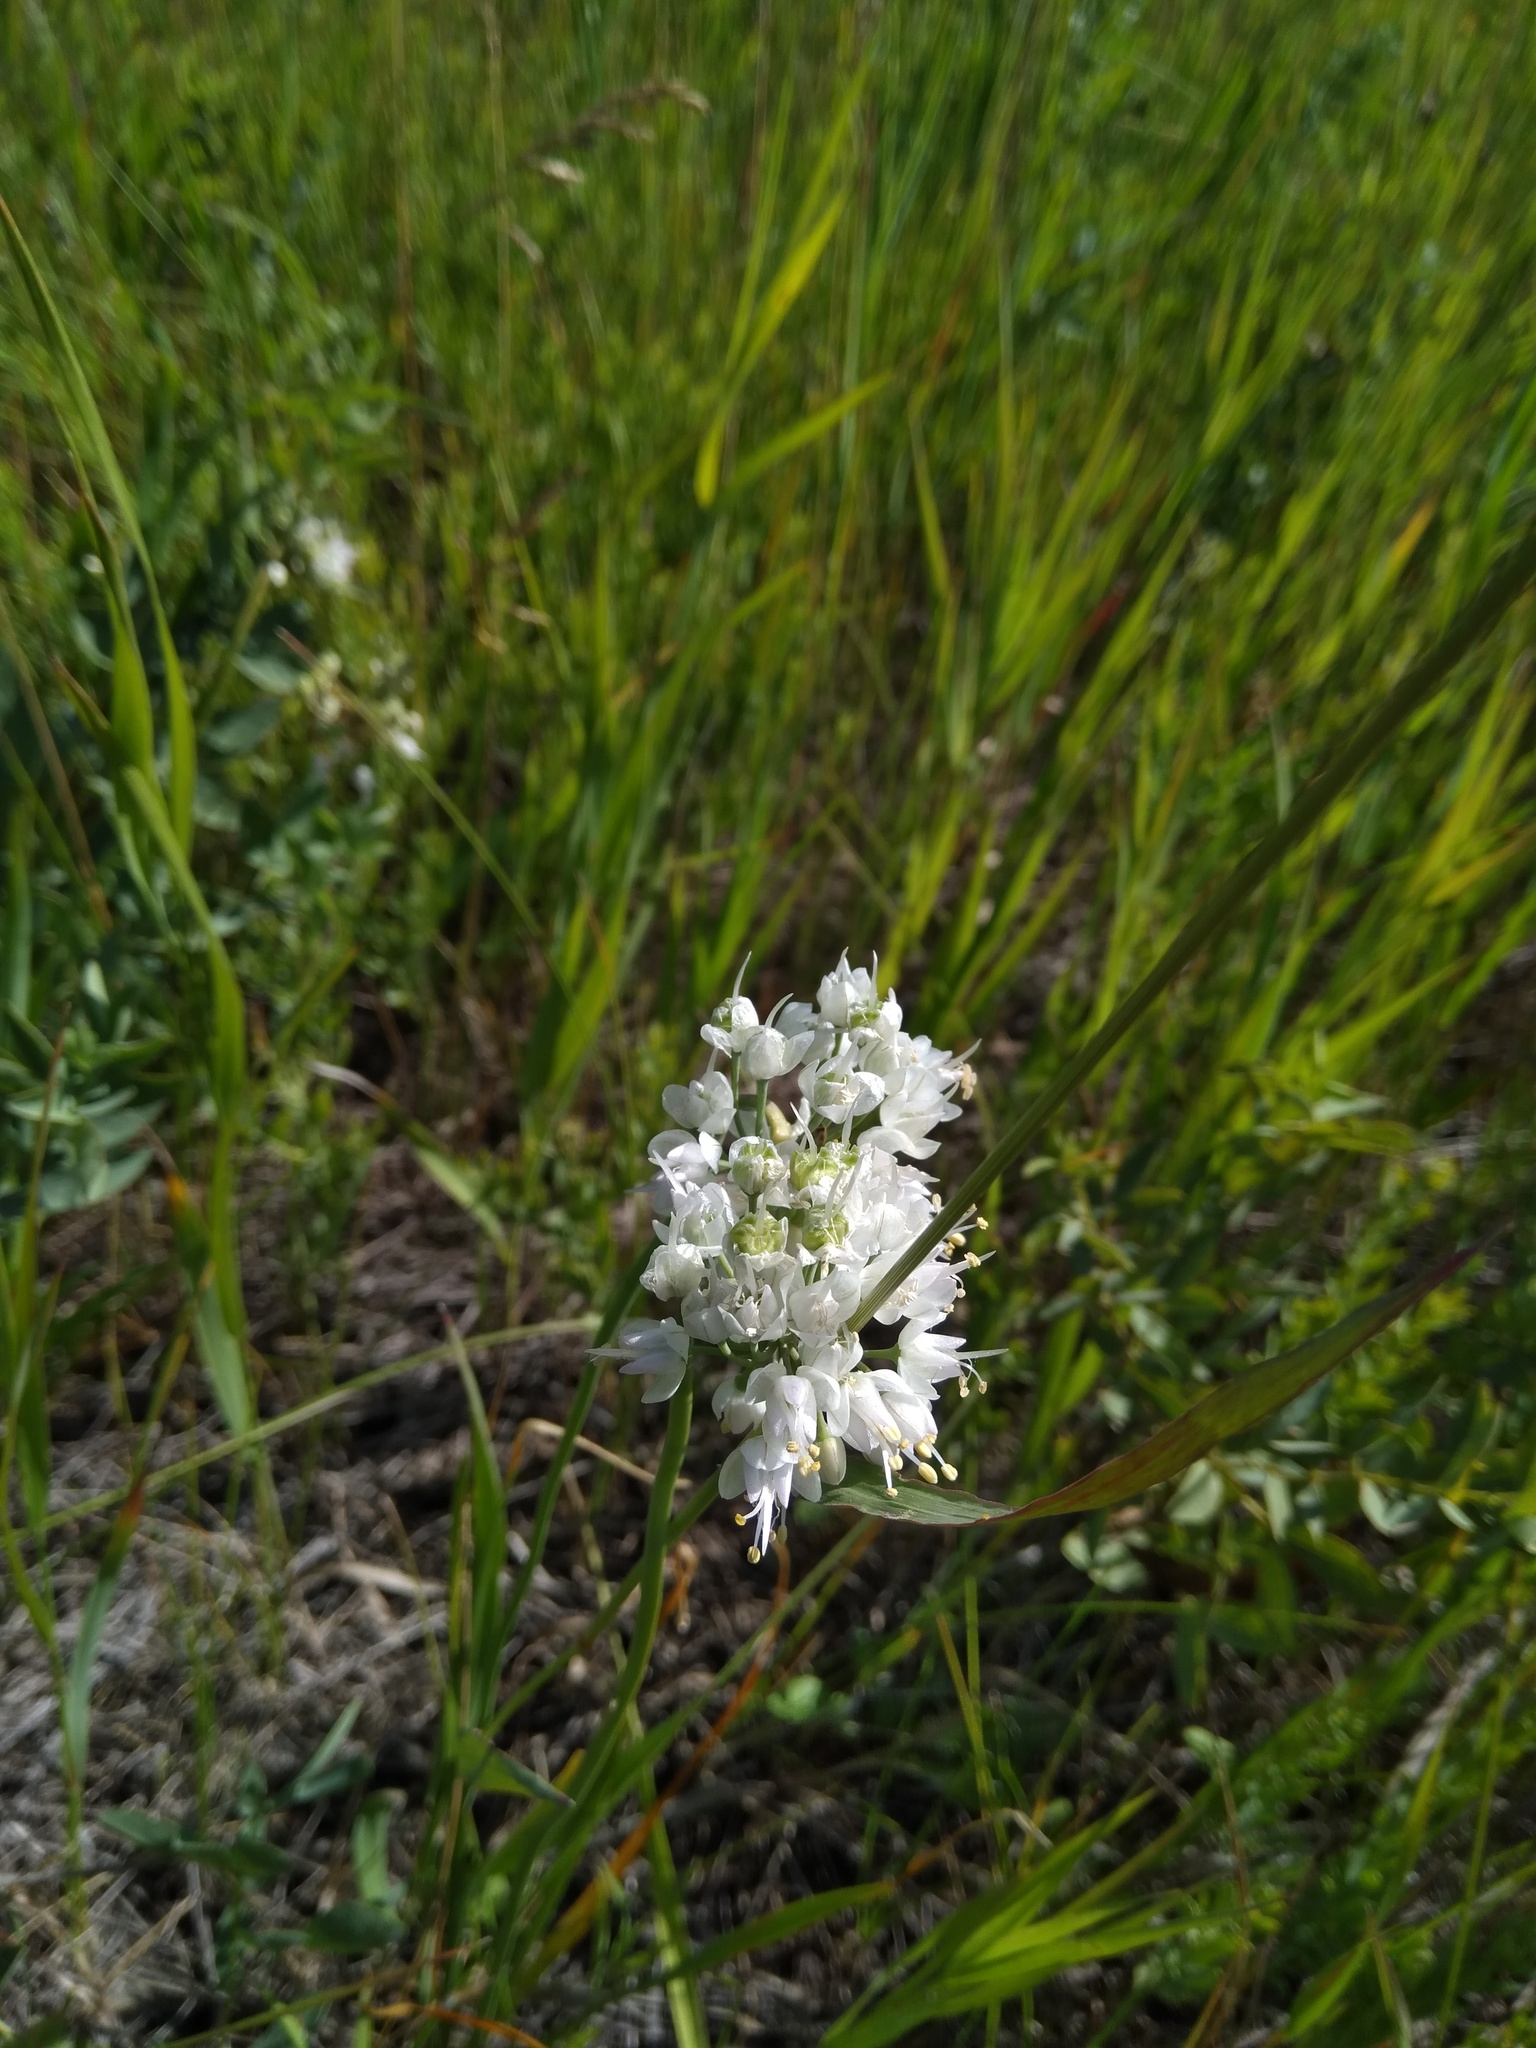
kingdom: Plantae
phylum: Tracheophyta
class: Liliopsida
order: Asparagales
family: Amaryllidaceae
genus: Allium
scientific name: Allium cernuum
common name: Nodding onion
